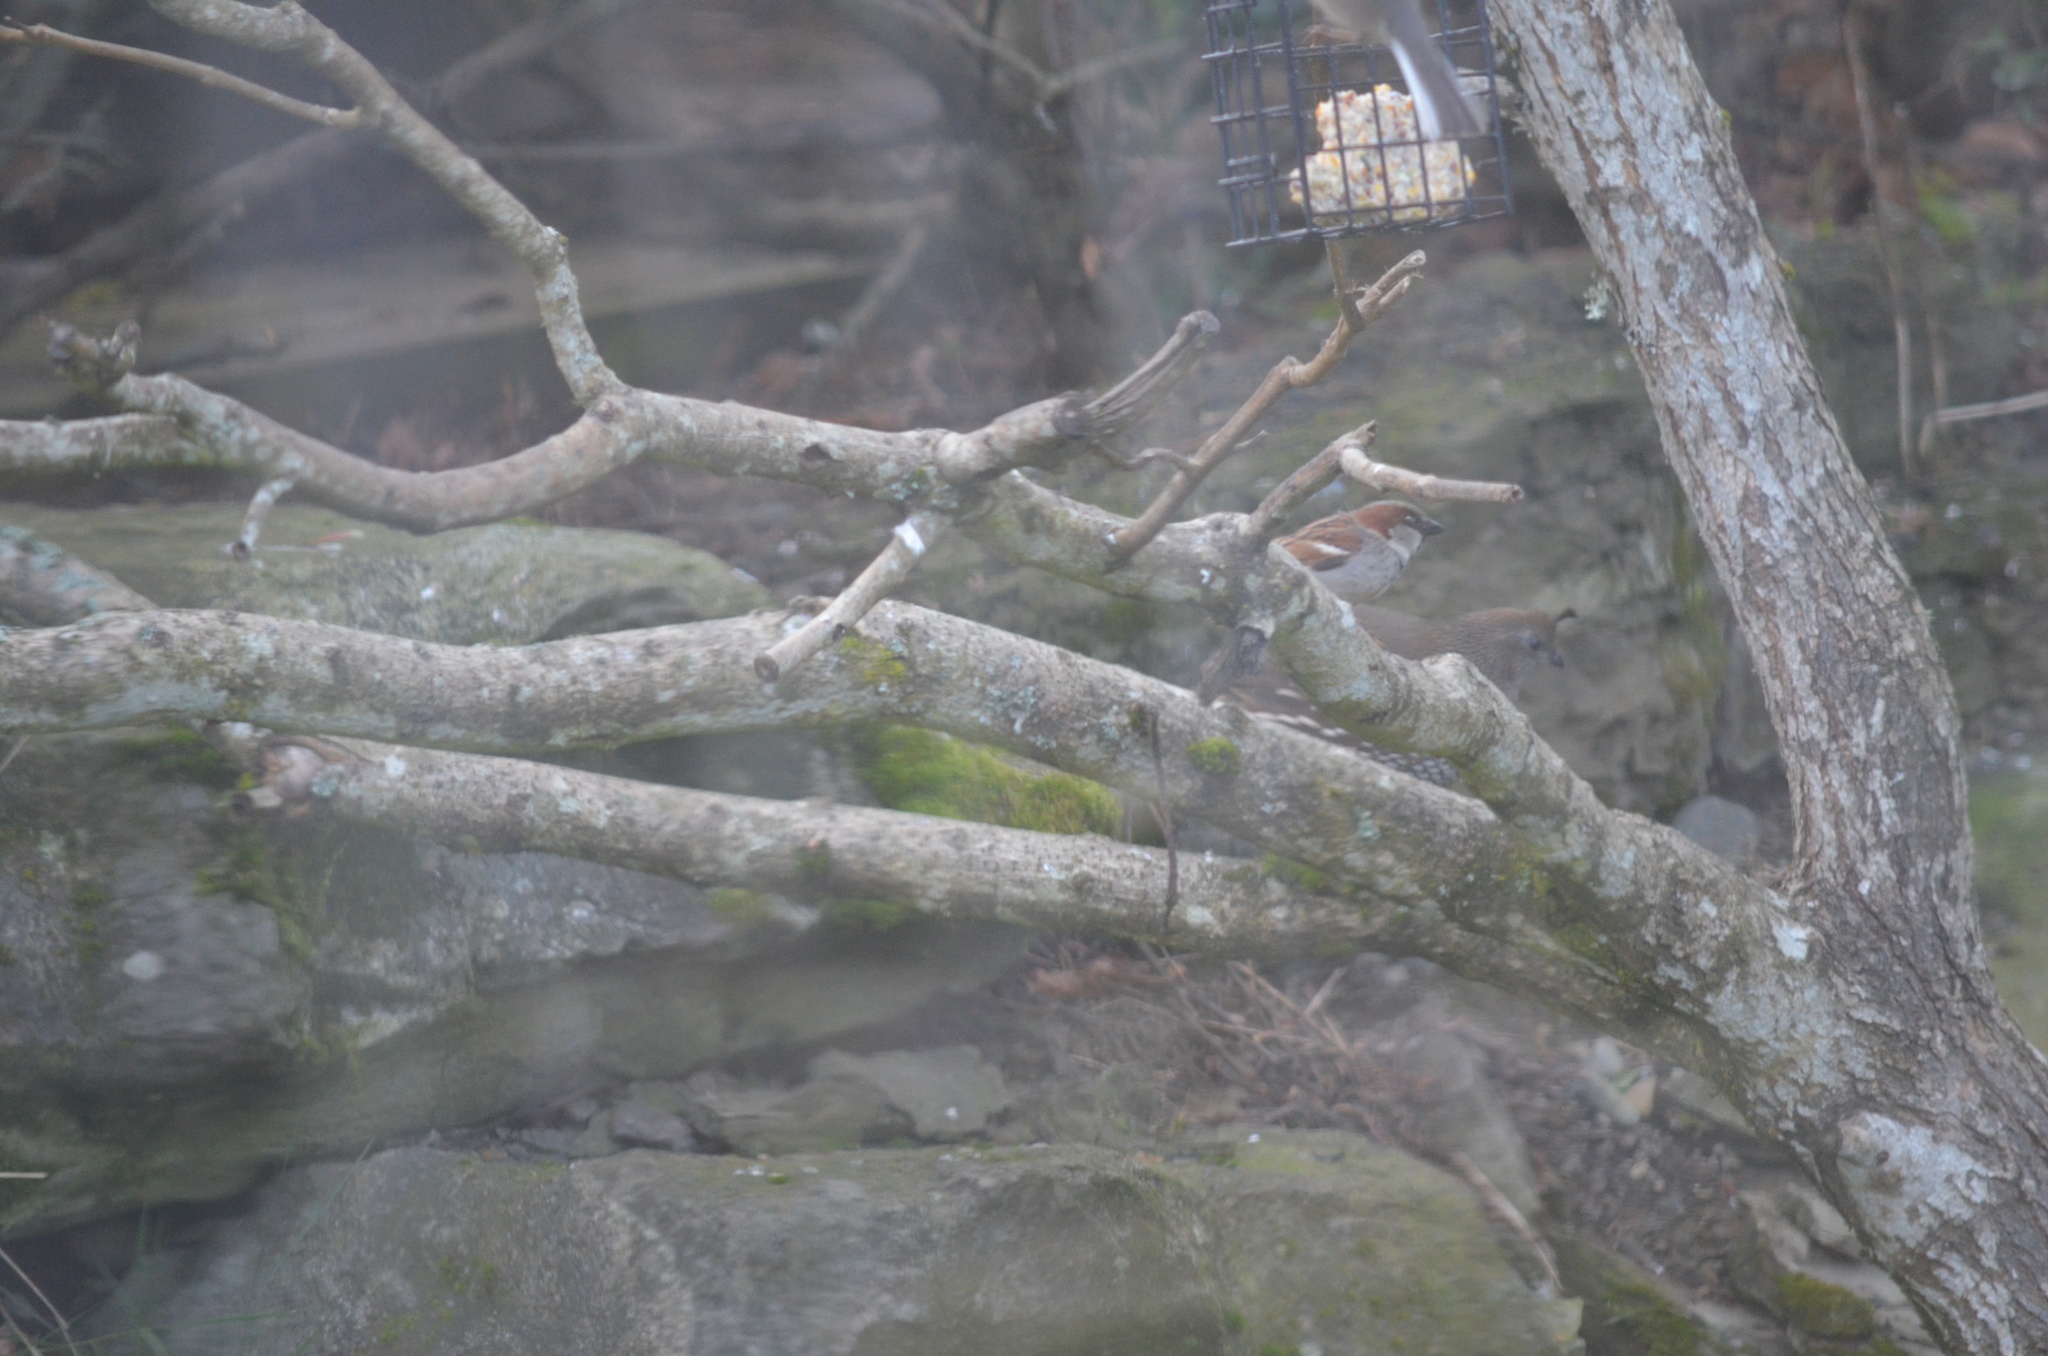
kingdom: Animalia
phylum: Chordata
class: Aves
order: Passeriformes
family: Passeridae
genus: Passer
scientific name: Passer domesticus
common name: House sparrow
